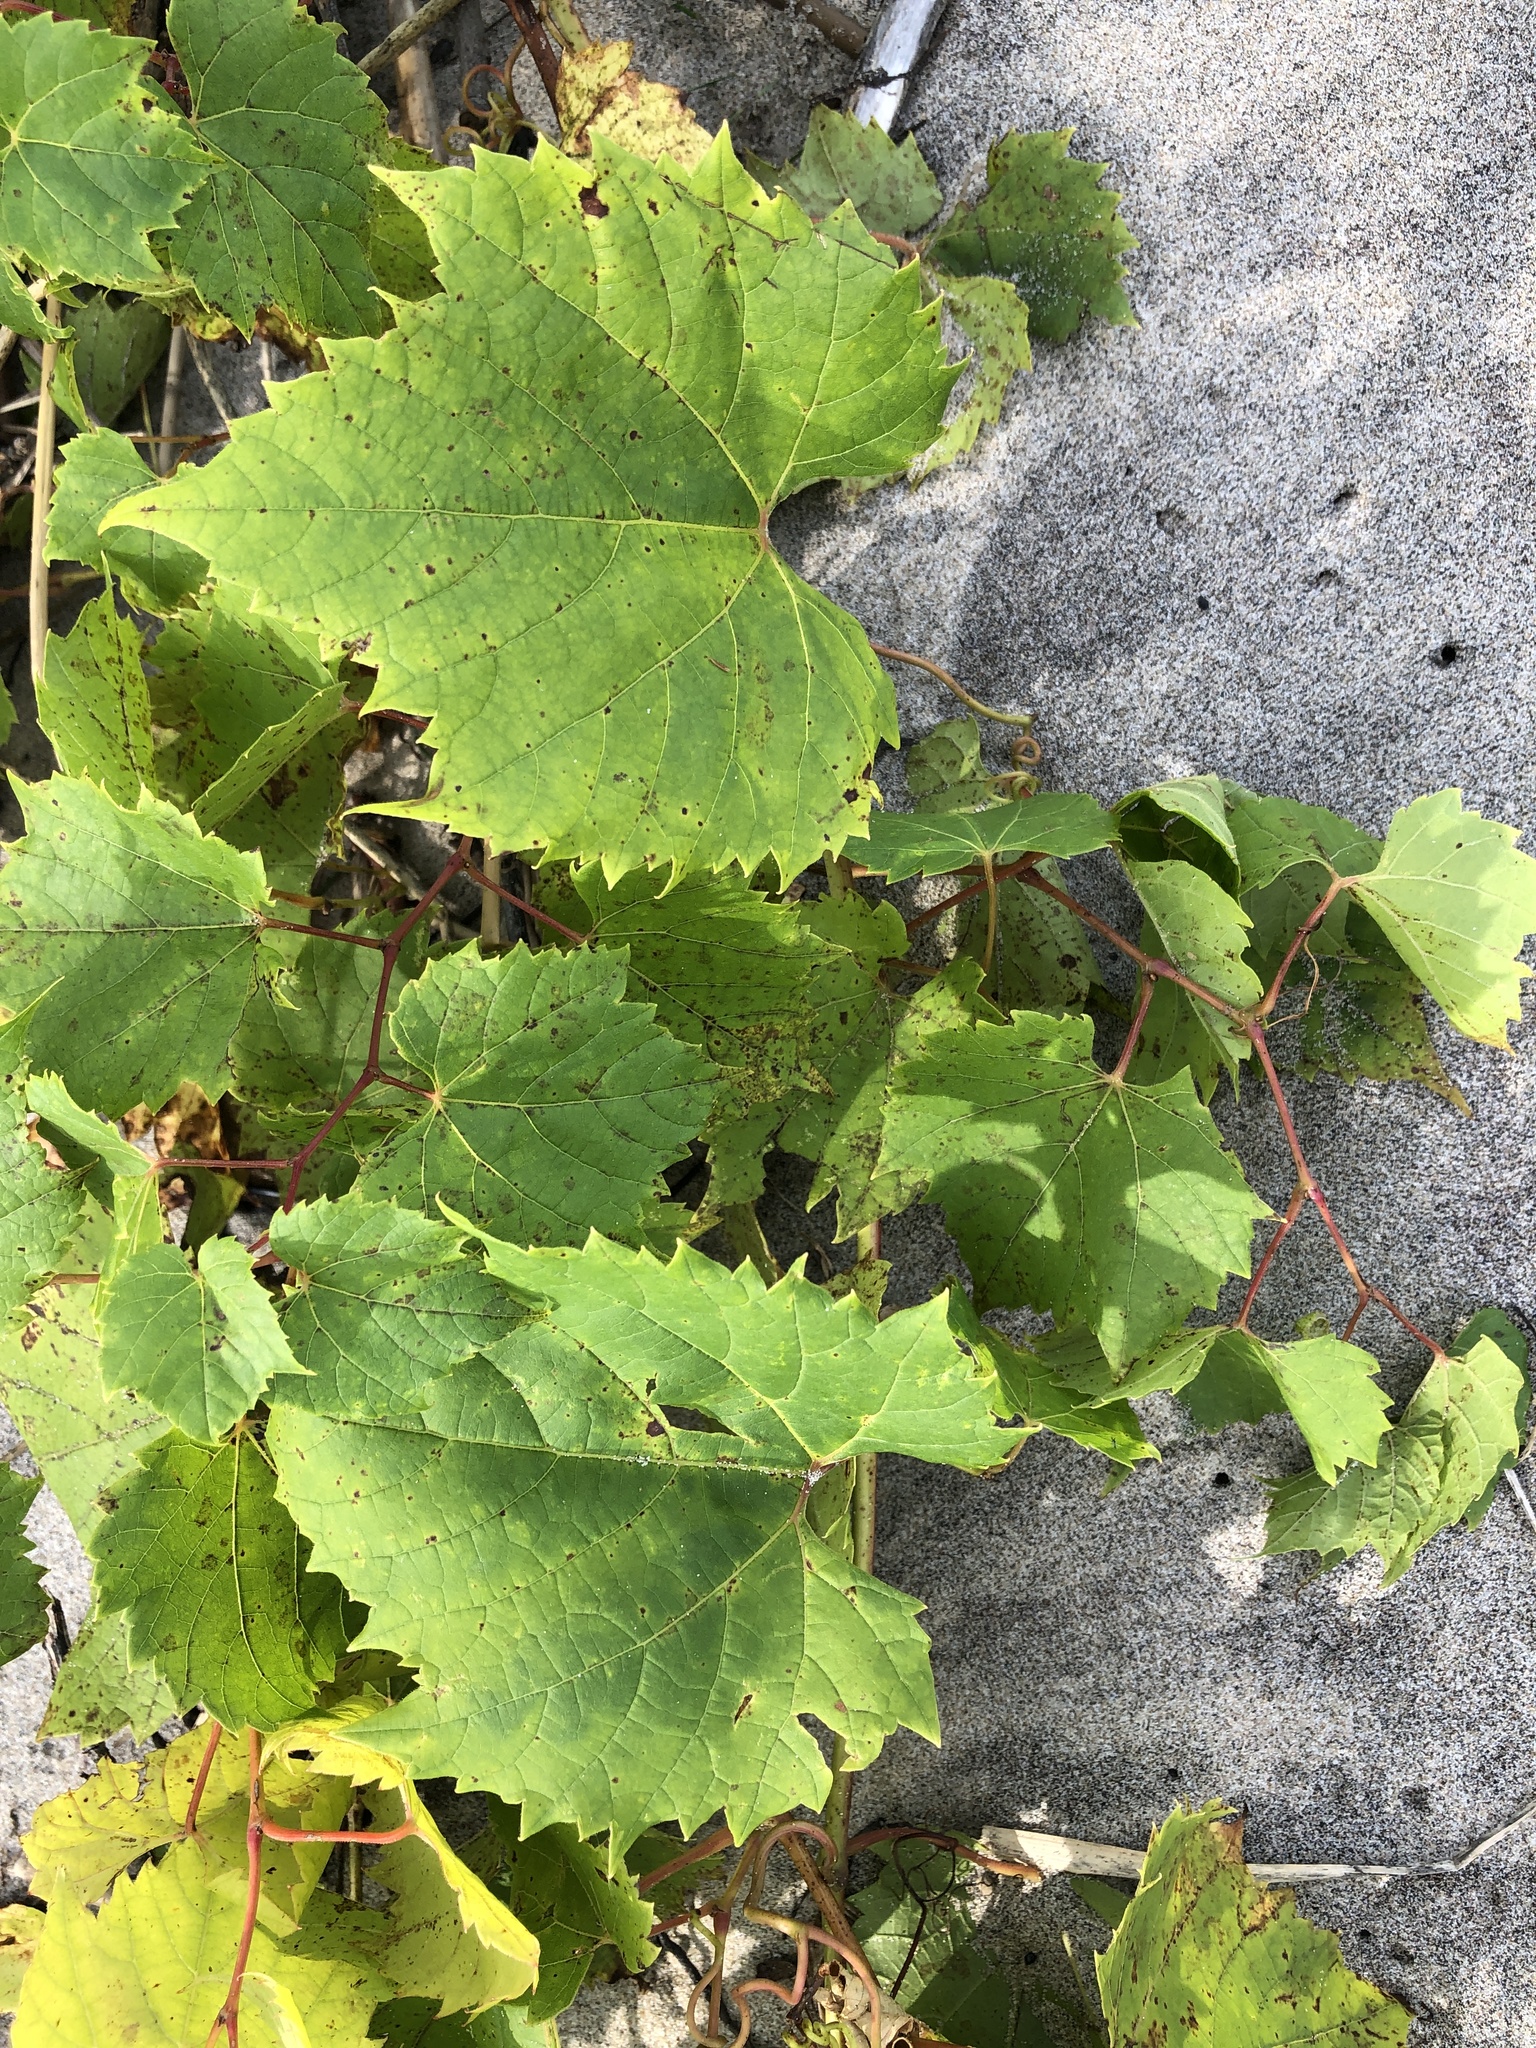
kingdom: Plantae
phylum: Tracheophyta
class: Magnoliopsida
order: Vitales
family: Vitaceae
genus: Vitis
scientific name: Vitis riparia
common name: Frost grape
